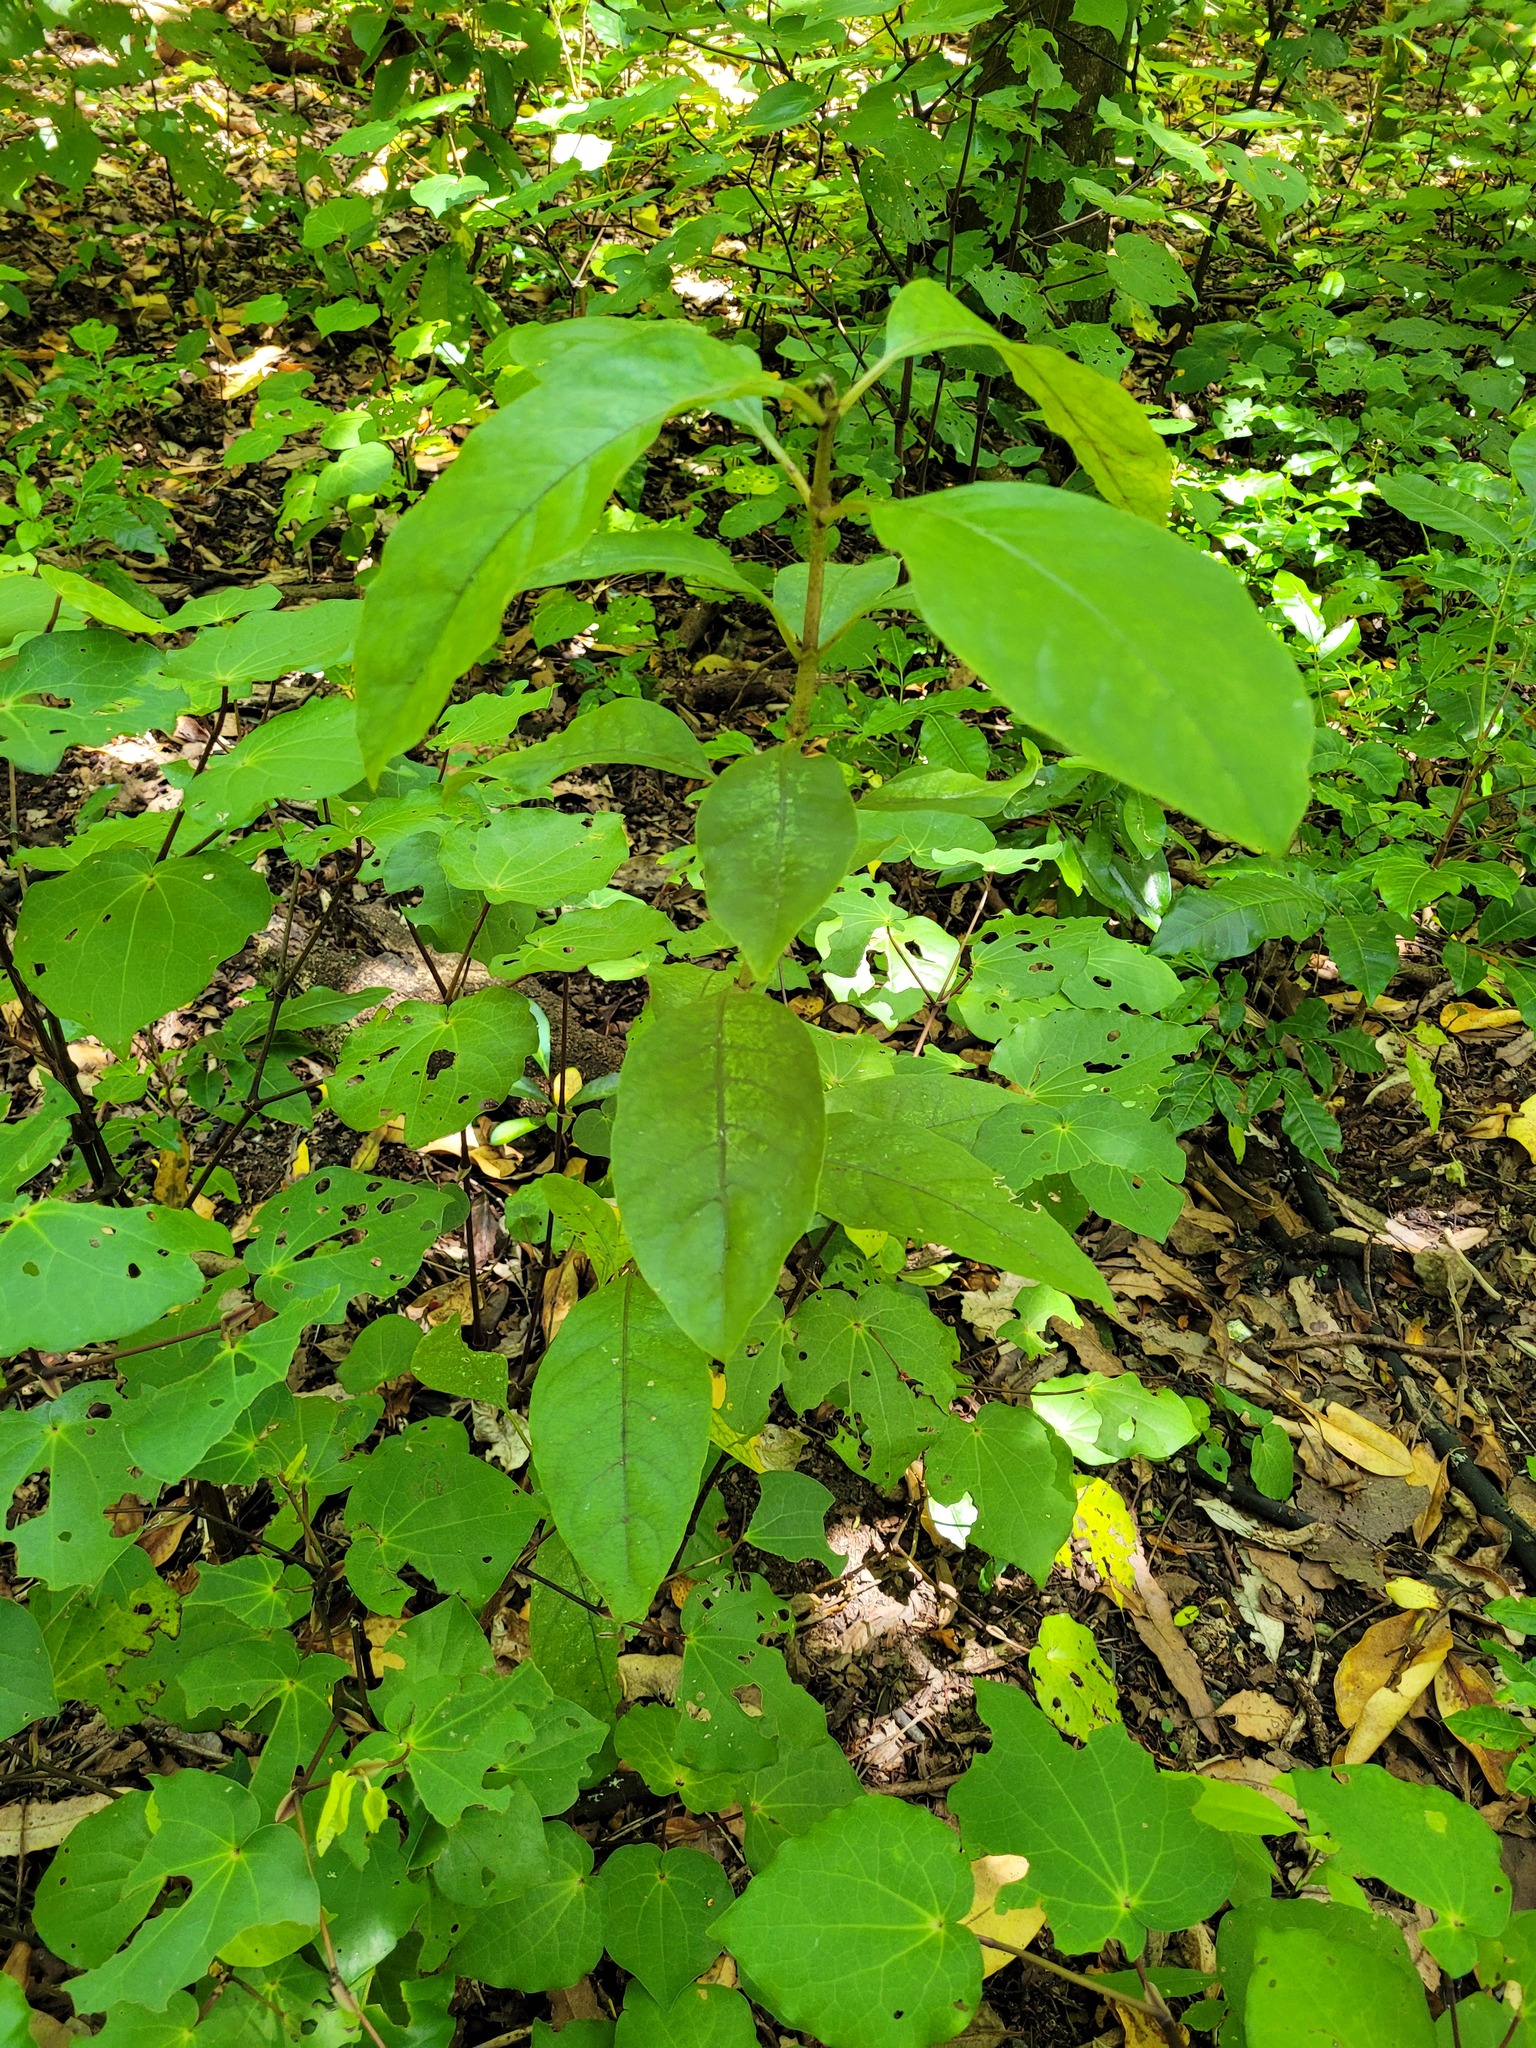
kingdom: Plantae
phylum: Tracheophyta
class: Magnoliopsida
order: Gentianales
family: Rubiaceae
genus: Coprosma
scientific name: Coprosma autumnalis
